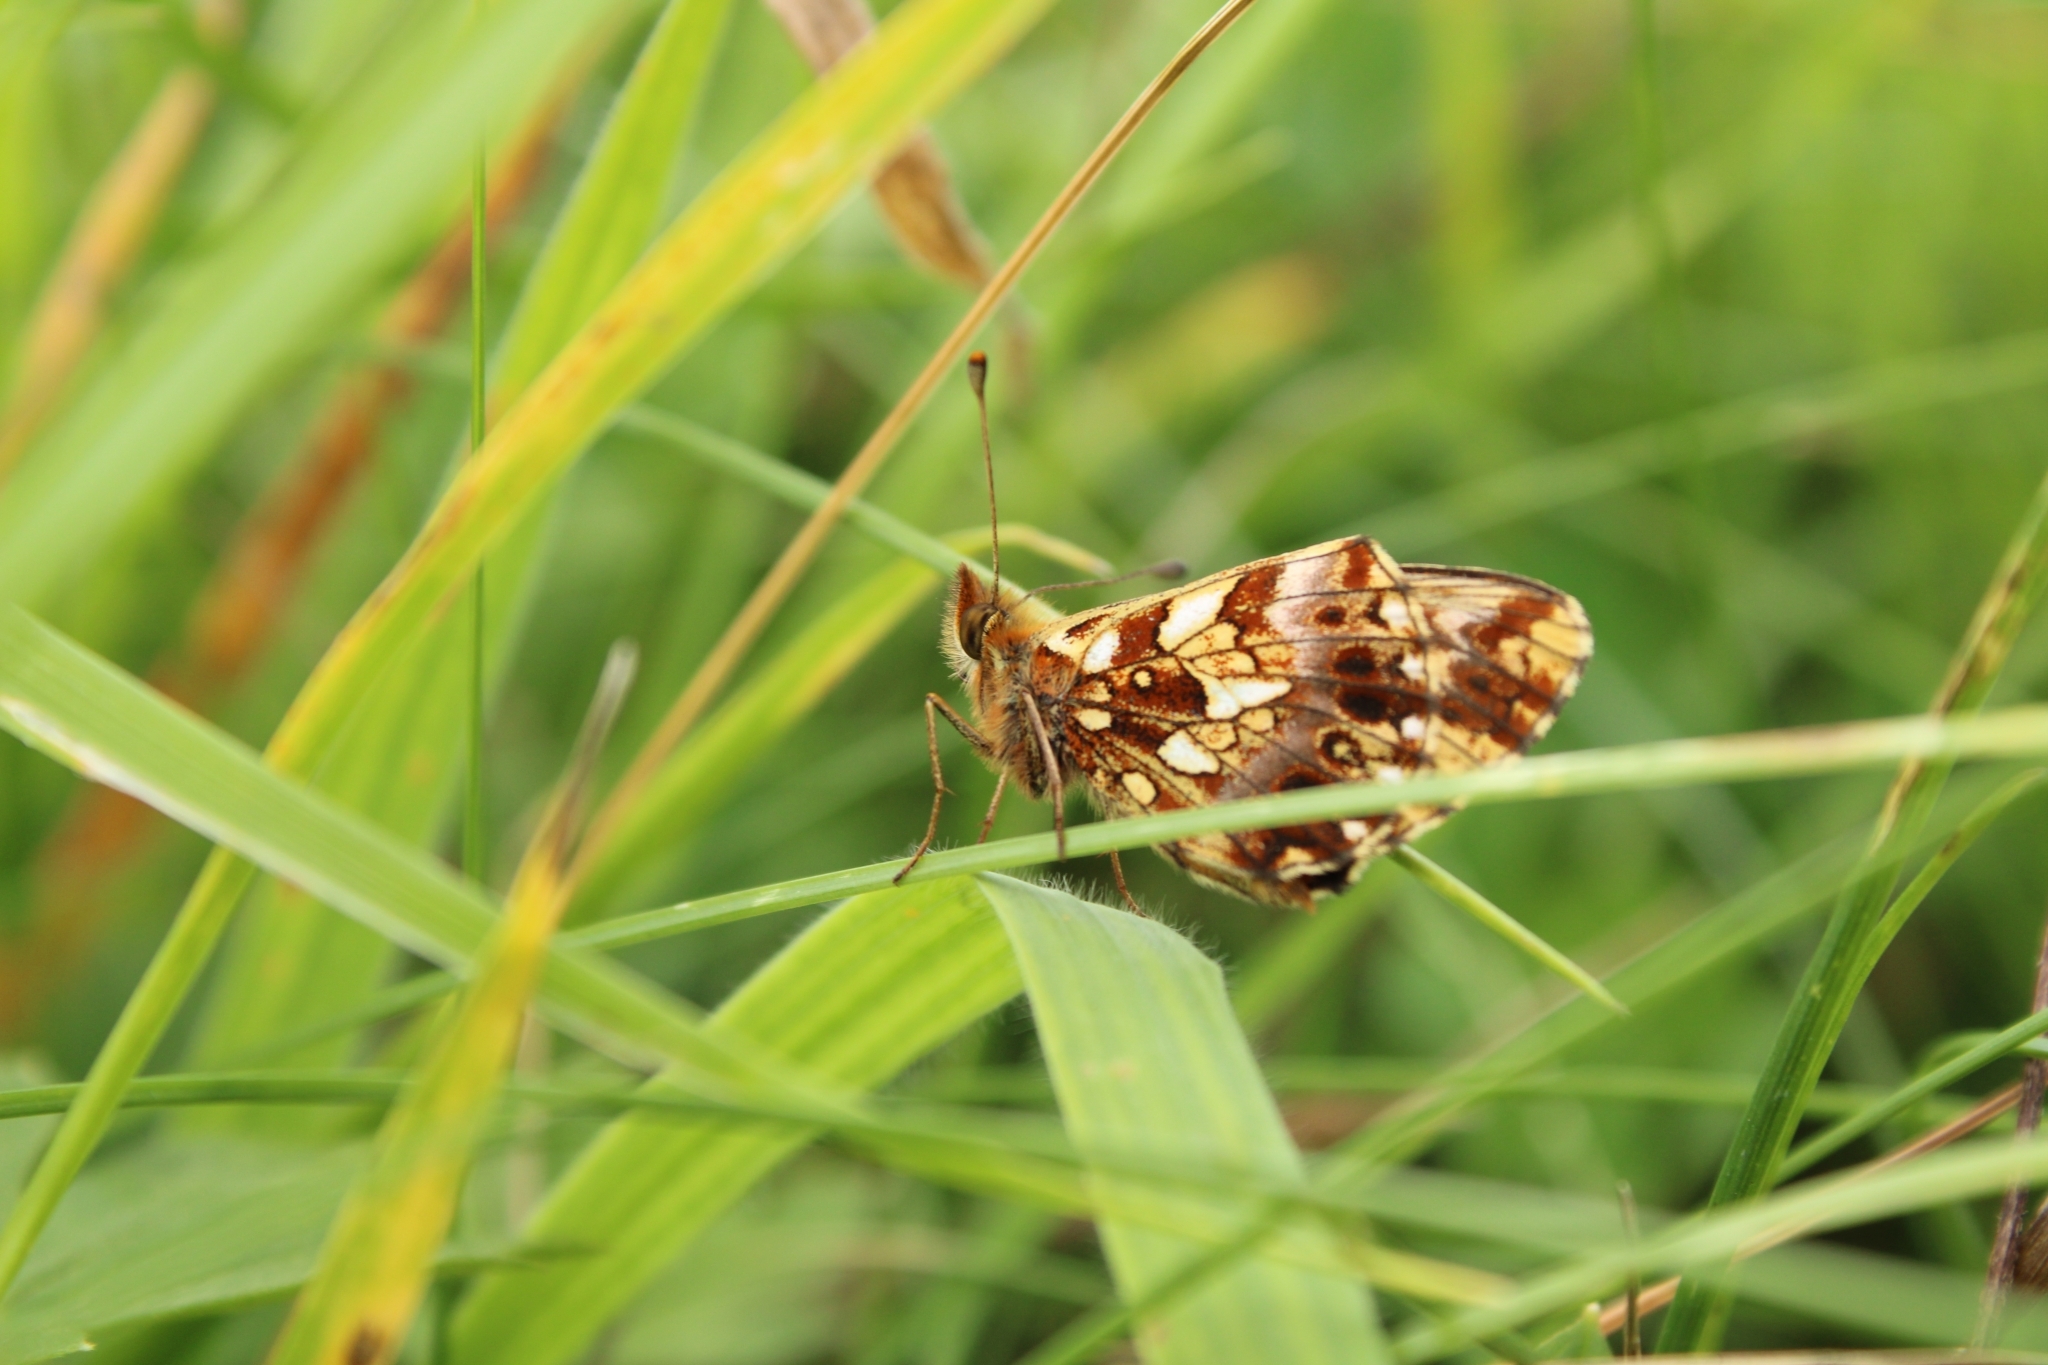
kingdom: Animalia
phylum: Arthropoda
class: Insecta
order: Lepidoptera
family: Nymphalidae
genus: Boloria
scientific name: Boloria dia
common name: Weaver's fritillary
